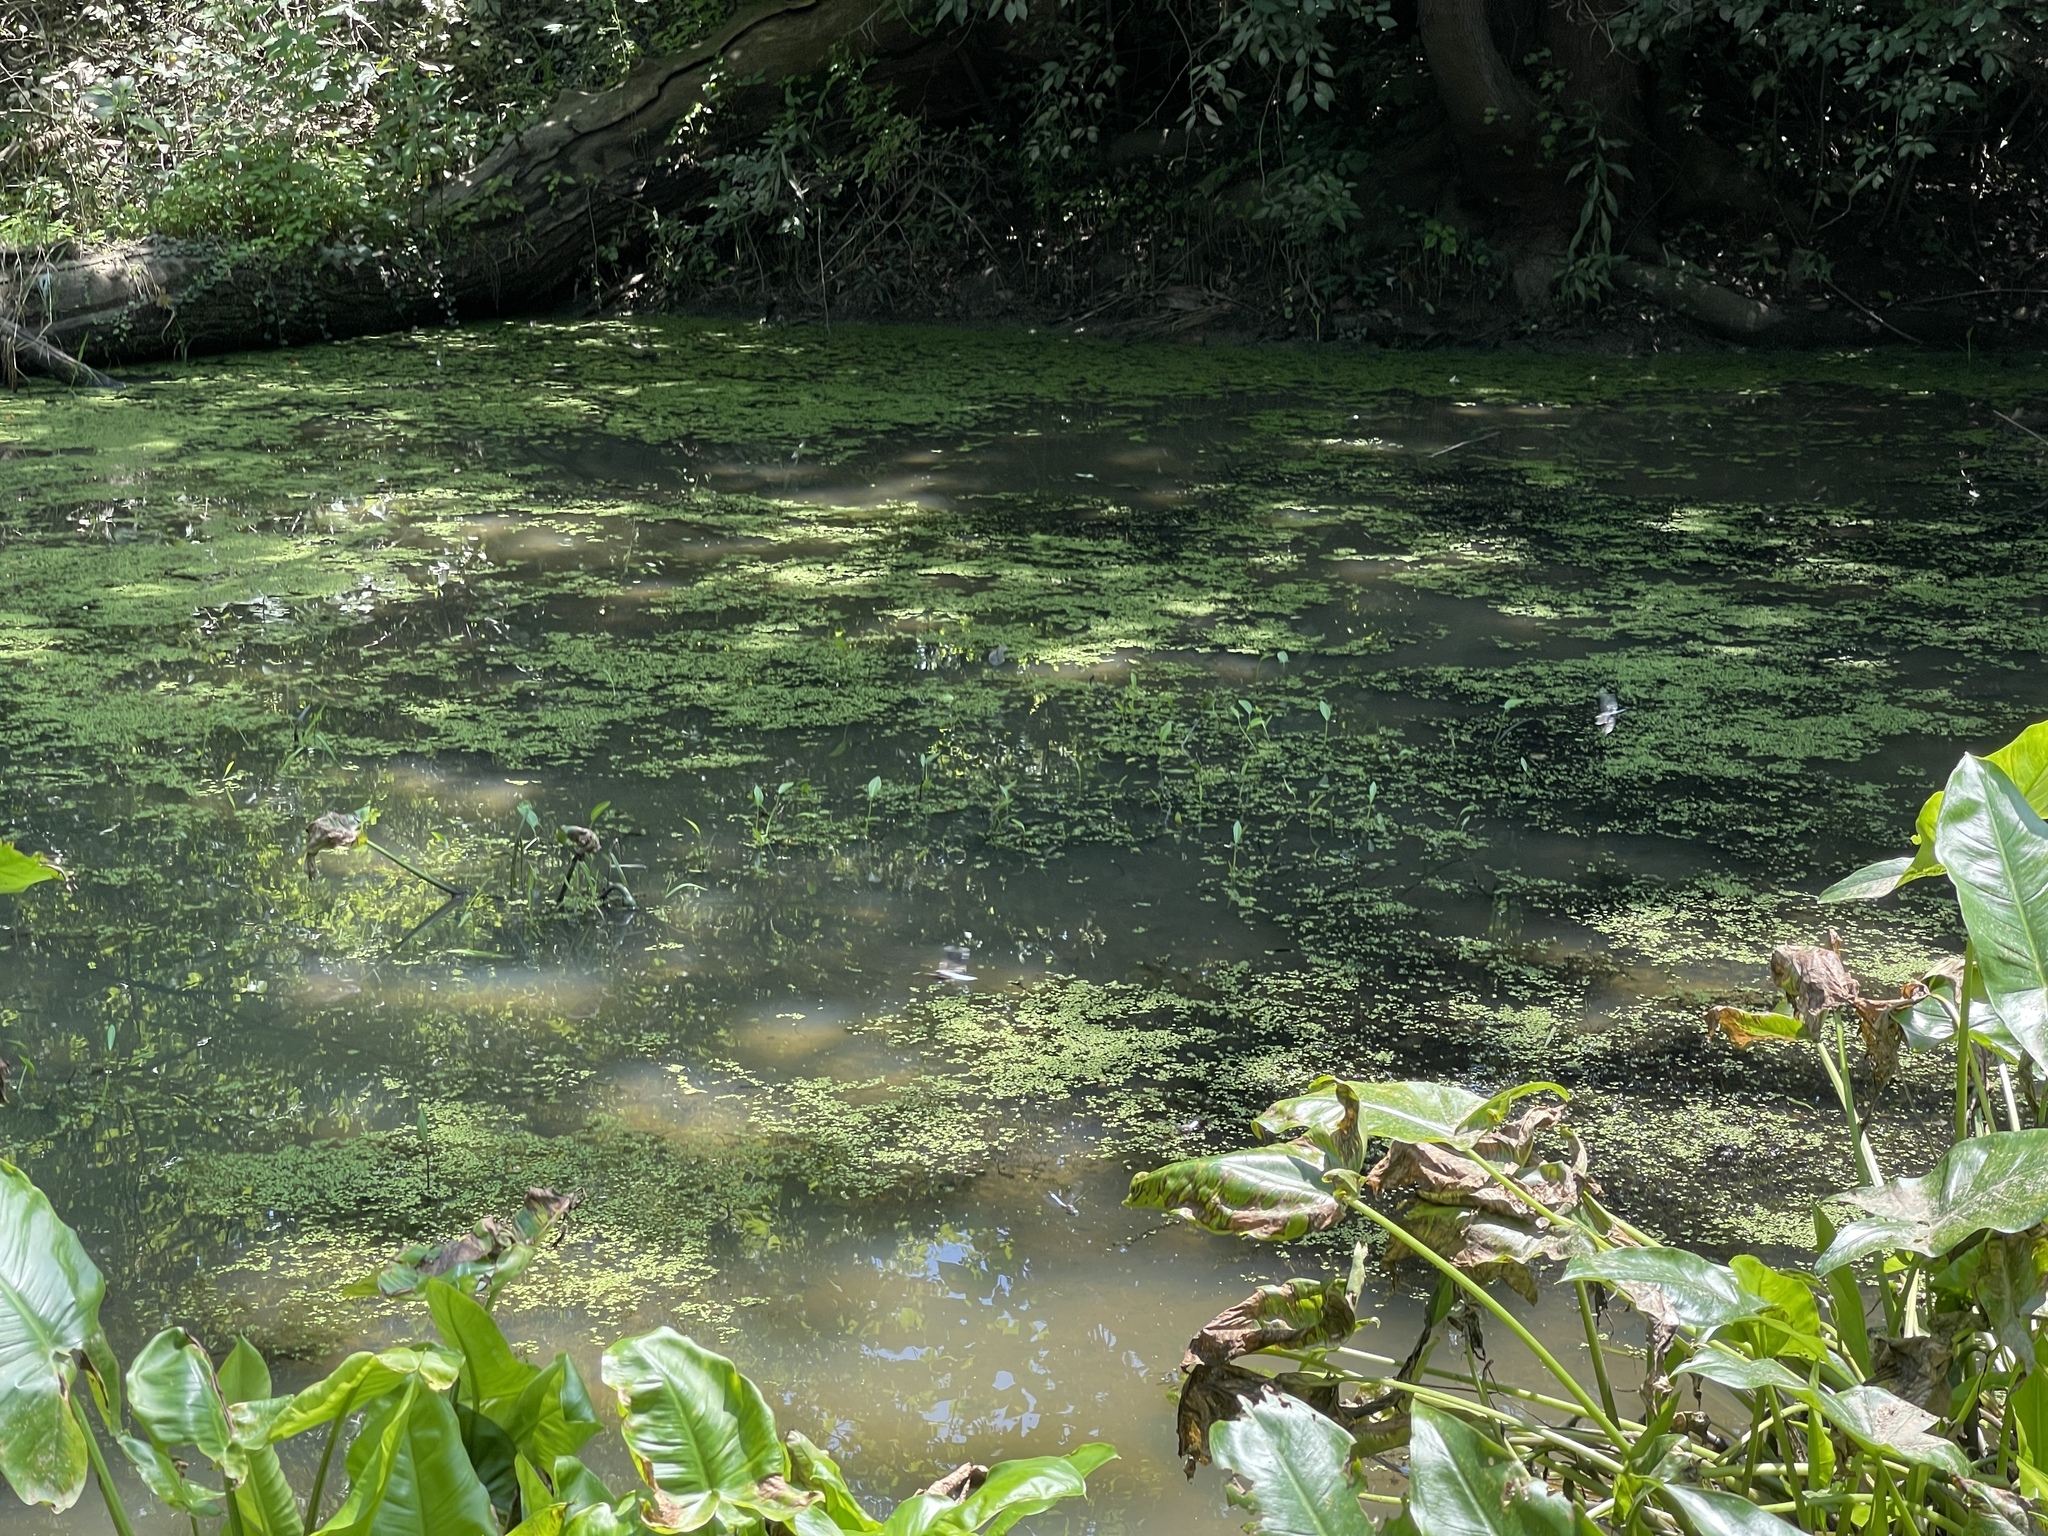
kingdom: Plantae
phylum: Tracheophyta
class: Liliopsida
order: Alismatales
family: Alismataceae
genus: Sagittaria
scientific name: Sagittaria rigida
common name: Canadian arrowhead
